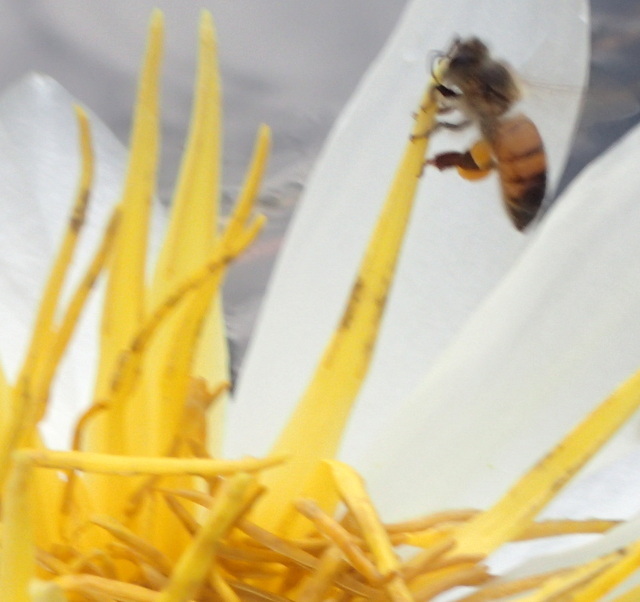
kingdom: Animalia
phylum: Arthropoda
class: Insecta
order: Hymenoptera
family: Apidae
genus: Apis
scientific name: Apis mellifera
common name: Honey bee
